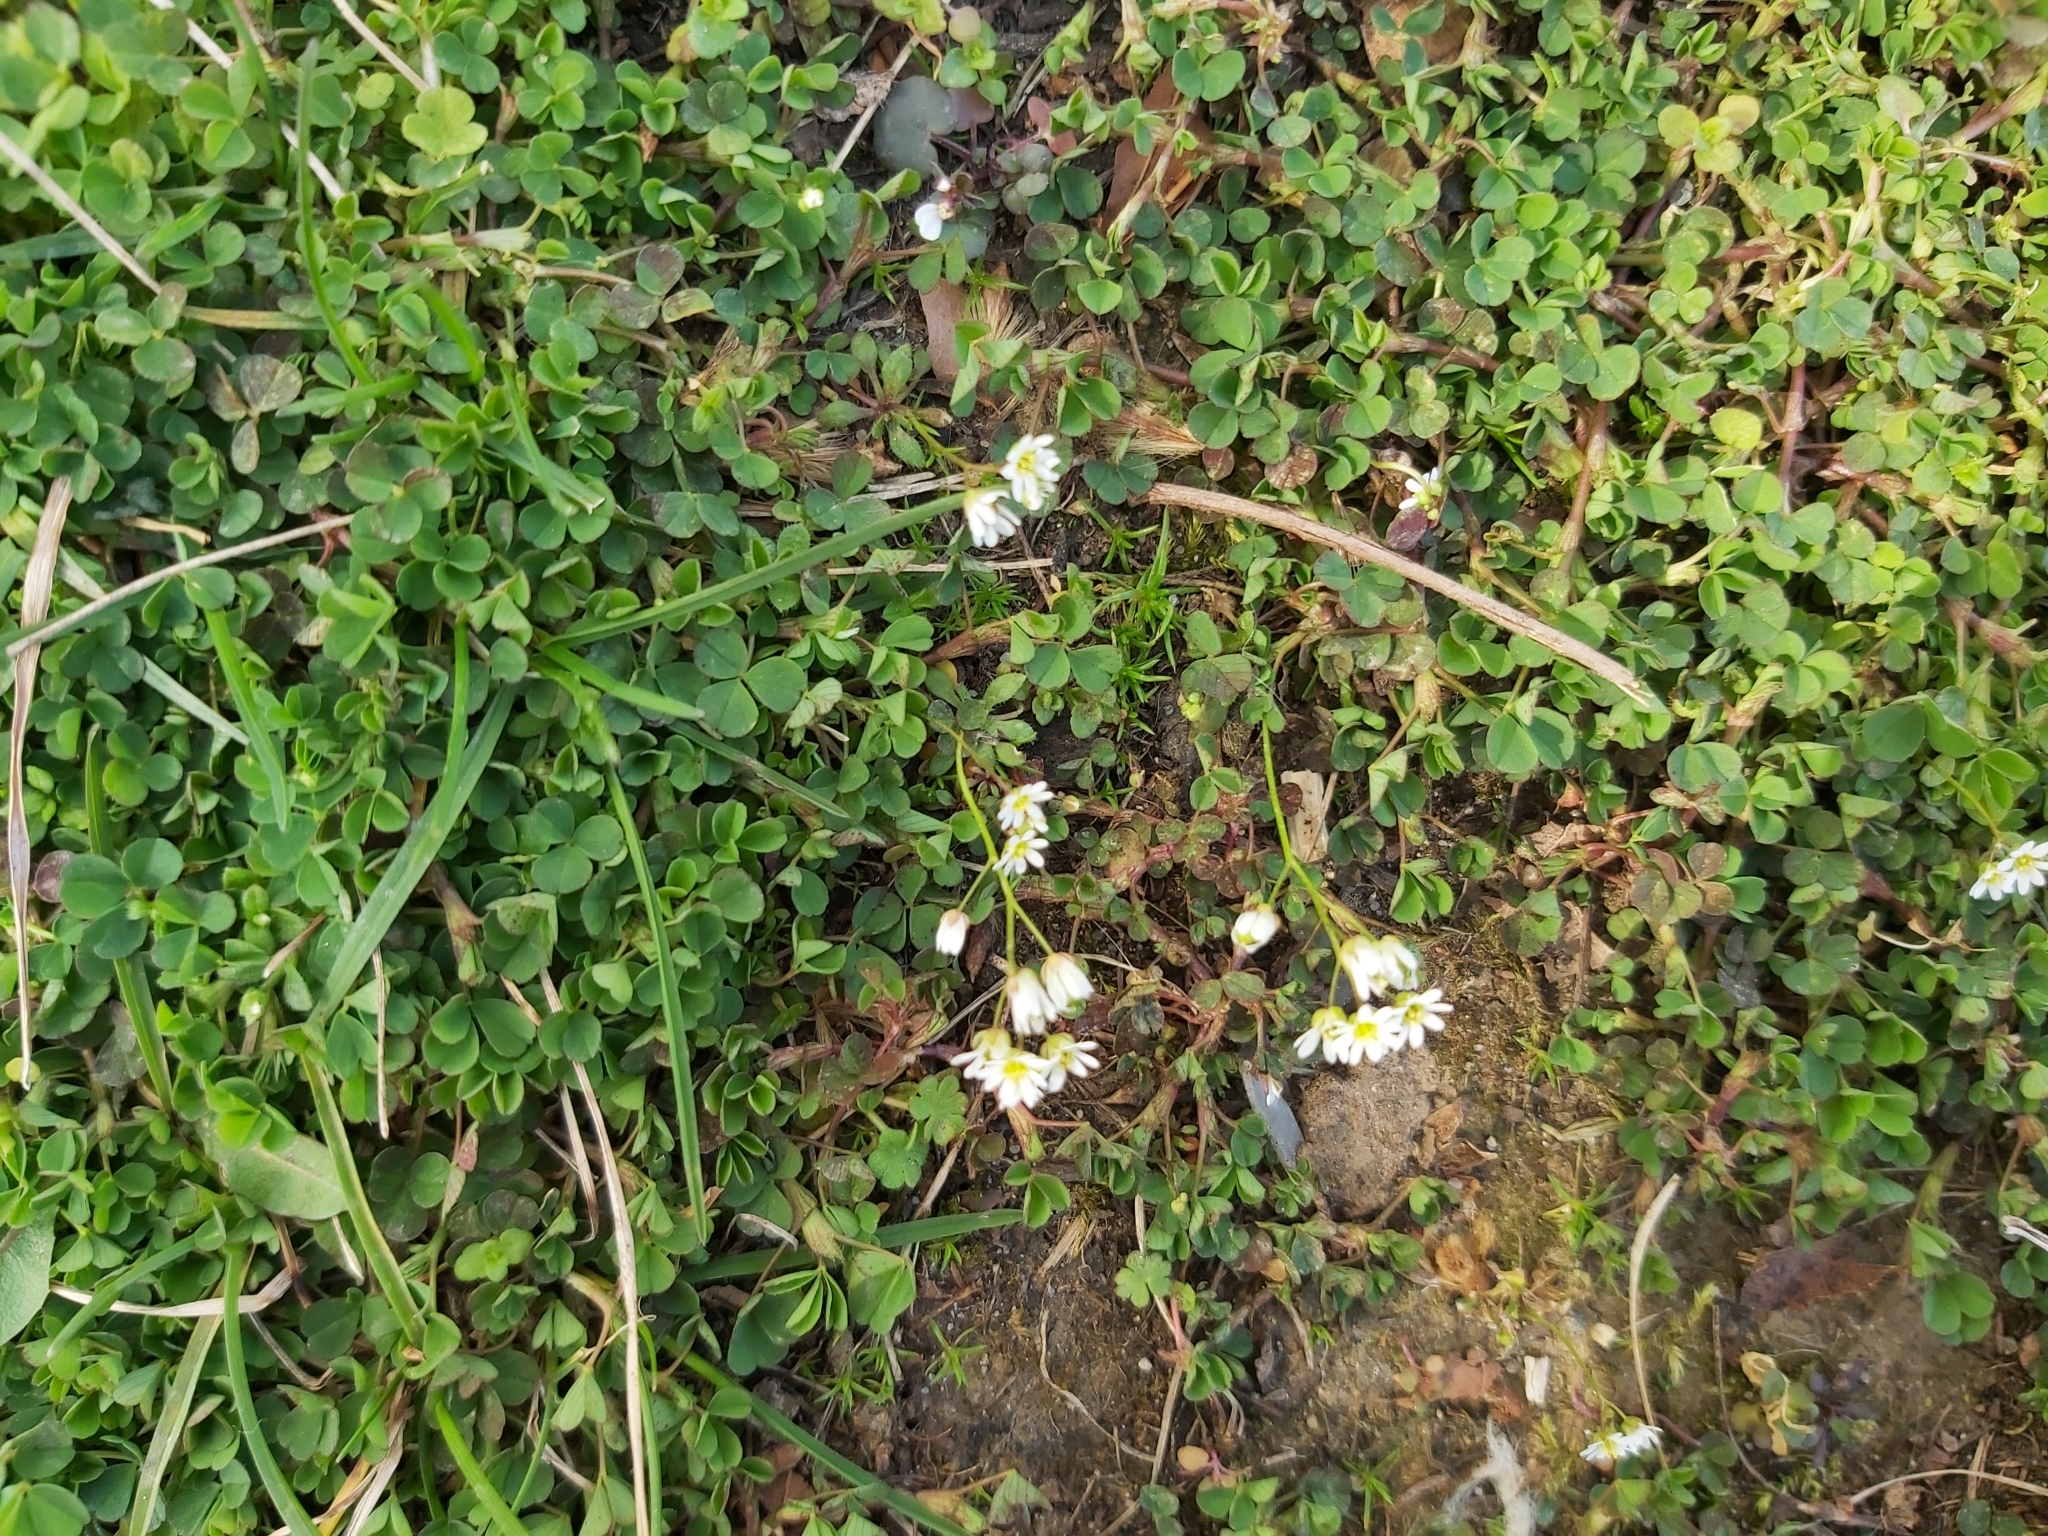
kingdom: Plantae
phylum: Tracheophyta
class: Magnoliopsida
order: Brassicales
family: Brassicaceae
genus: Draba
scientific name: Draba verna
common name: Spring draba
